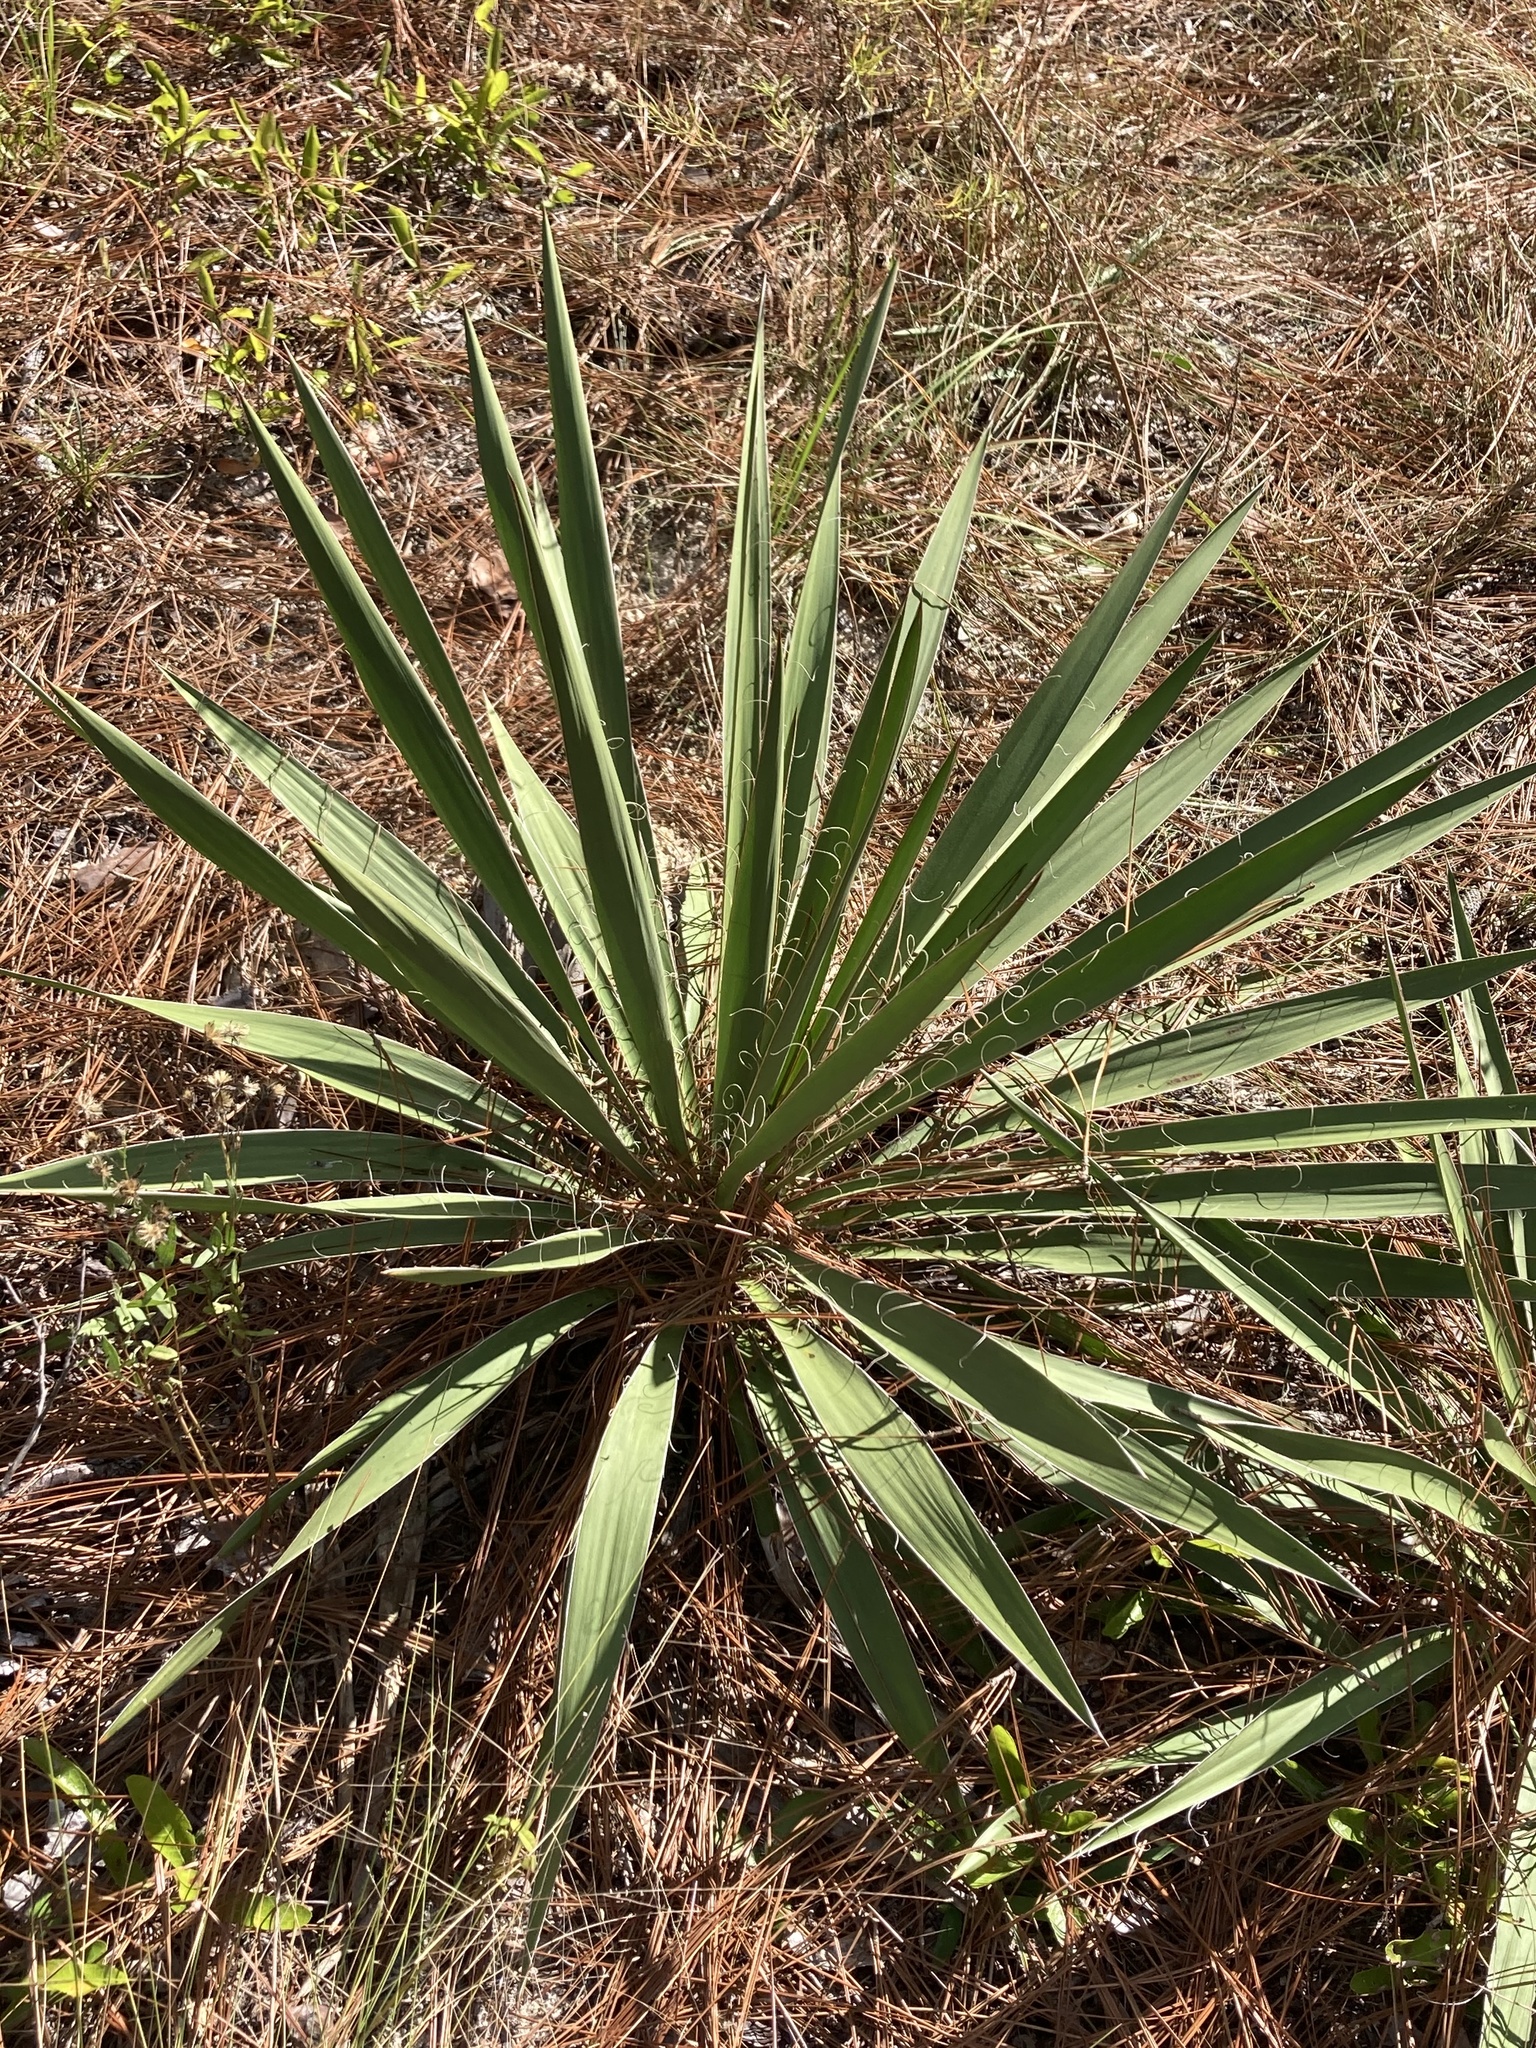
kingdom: Plantae
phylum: Tracheophyta
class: Liliopsida
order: Asparagales
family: Asparagaceae
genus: Yucca
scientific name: Yucca filamentosa
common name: Adam's-needle
